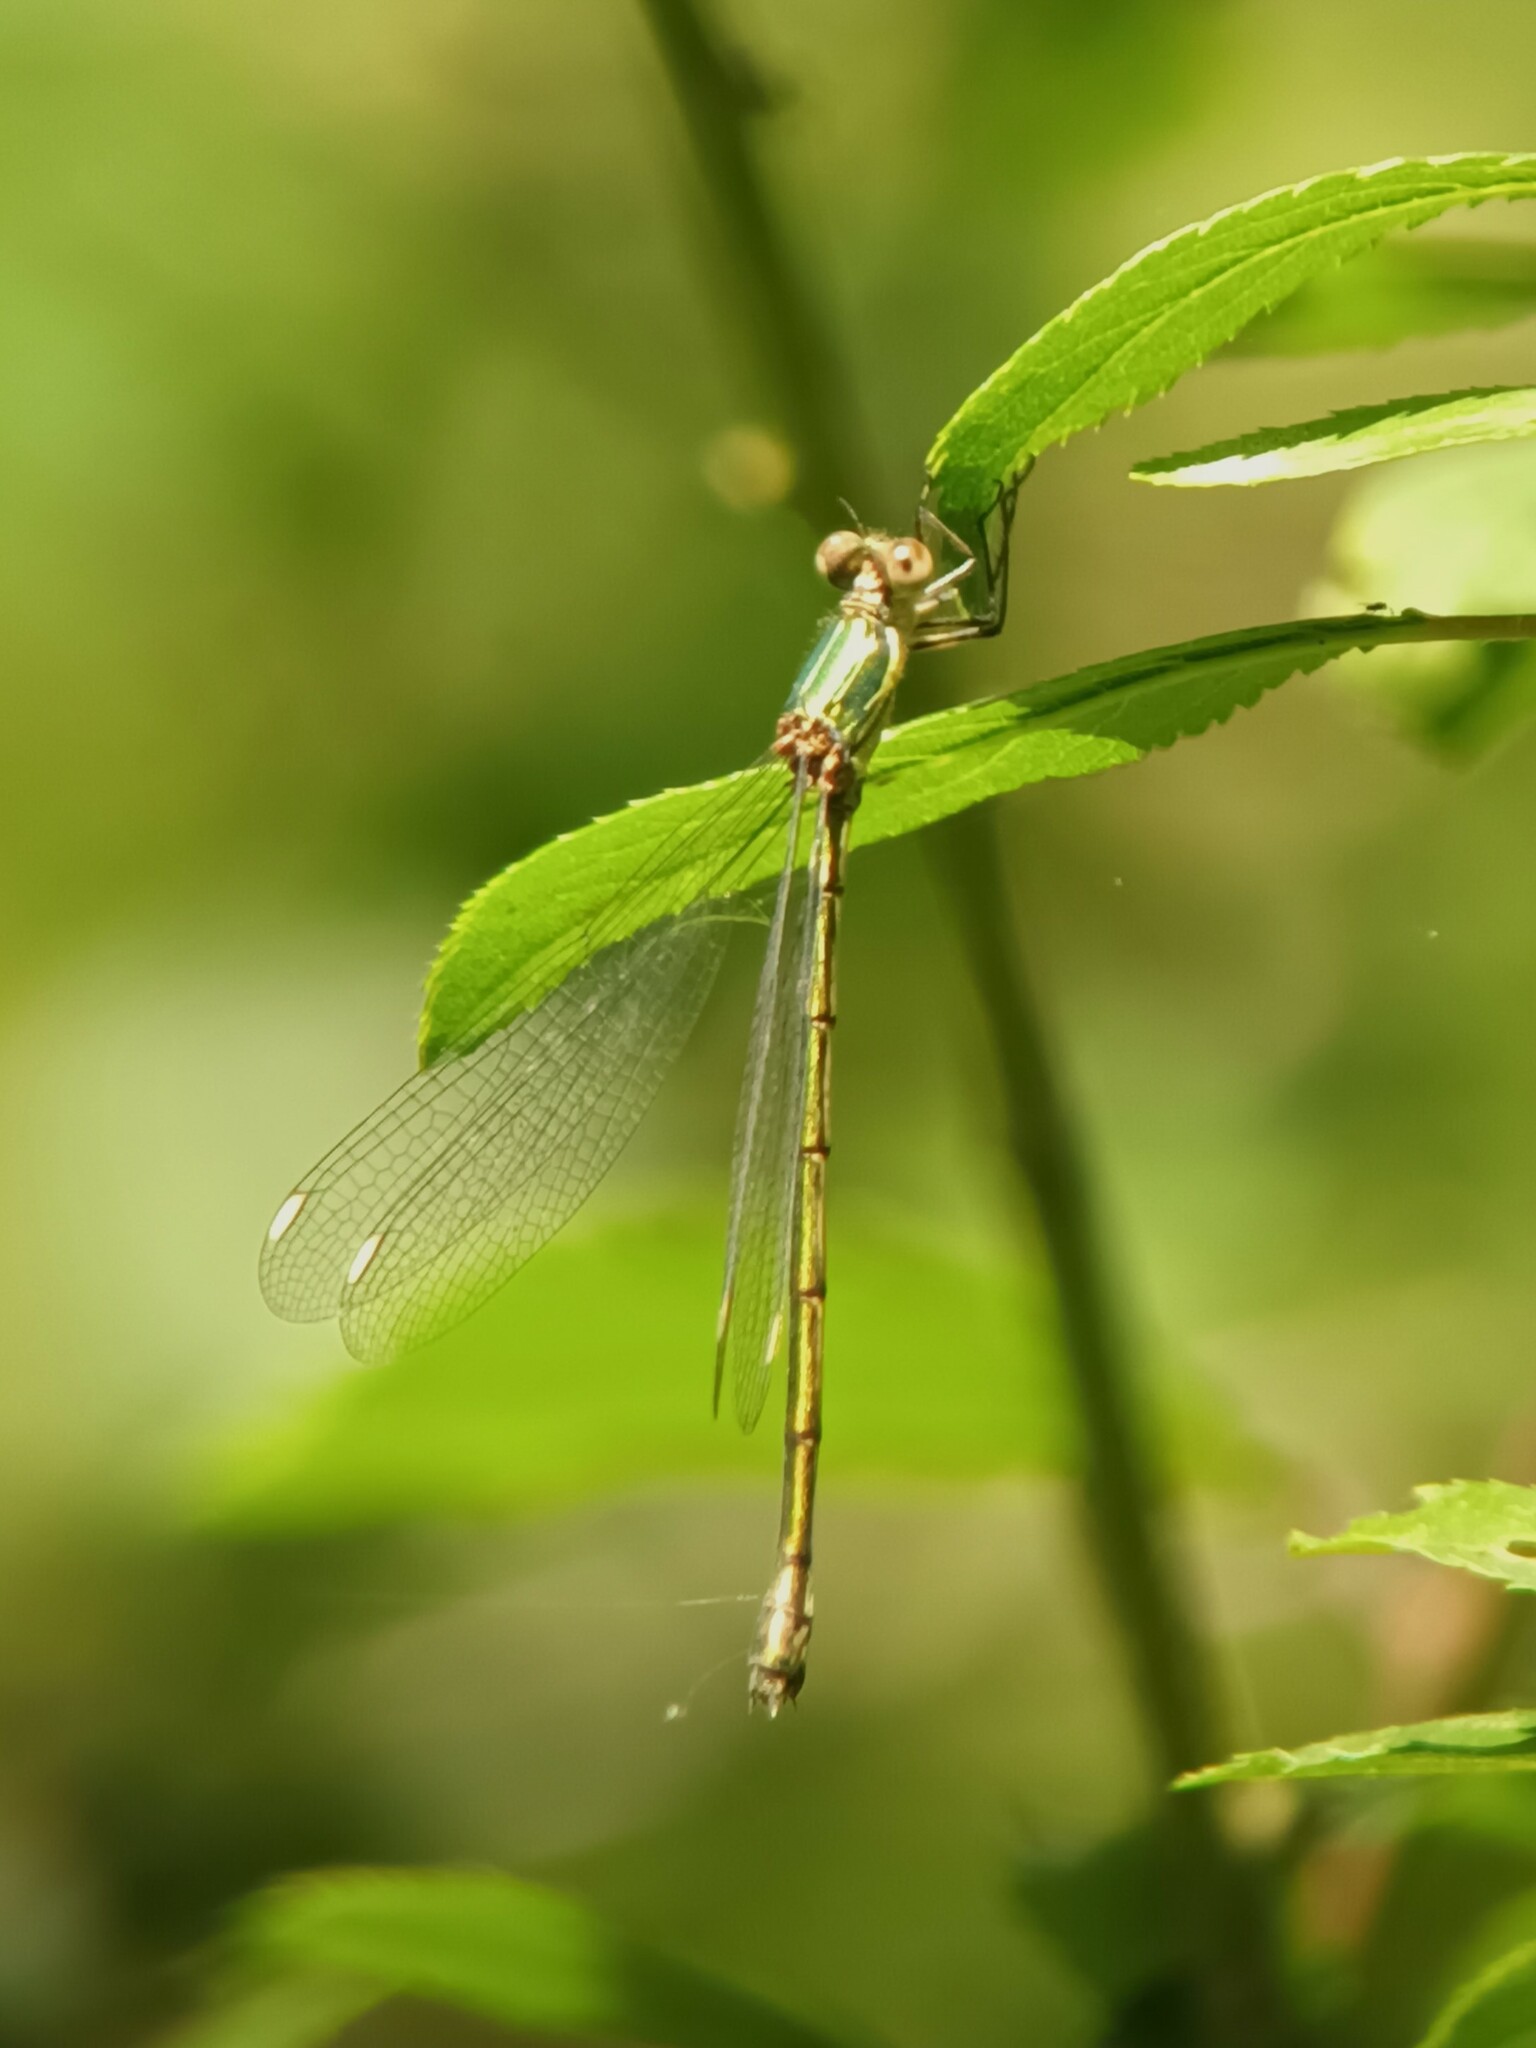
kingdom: Animalia
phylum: Arthropoda
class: Insecta
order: Odonata
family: Lestidae
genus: Chalcolestes
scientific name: Chalcolestes viridis
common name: Green emerald damselfly
